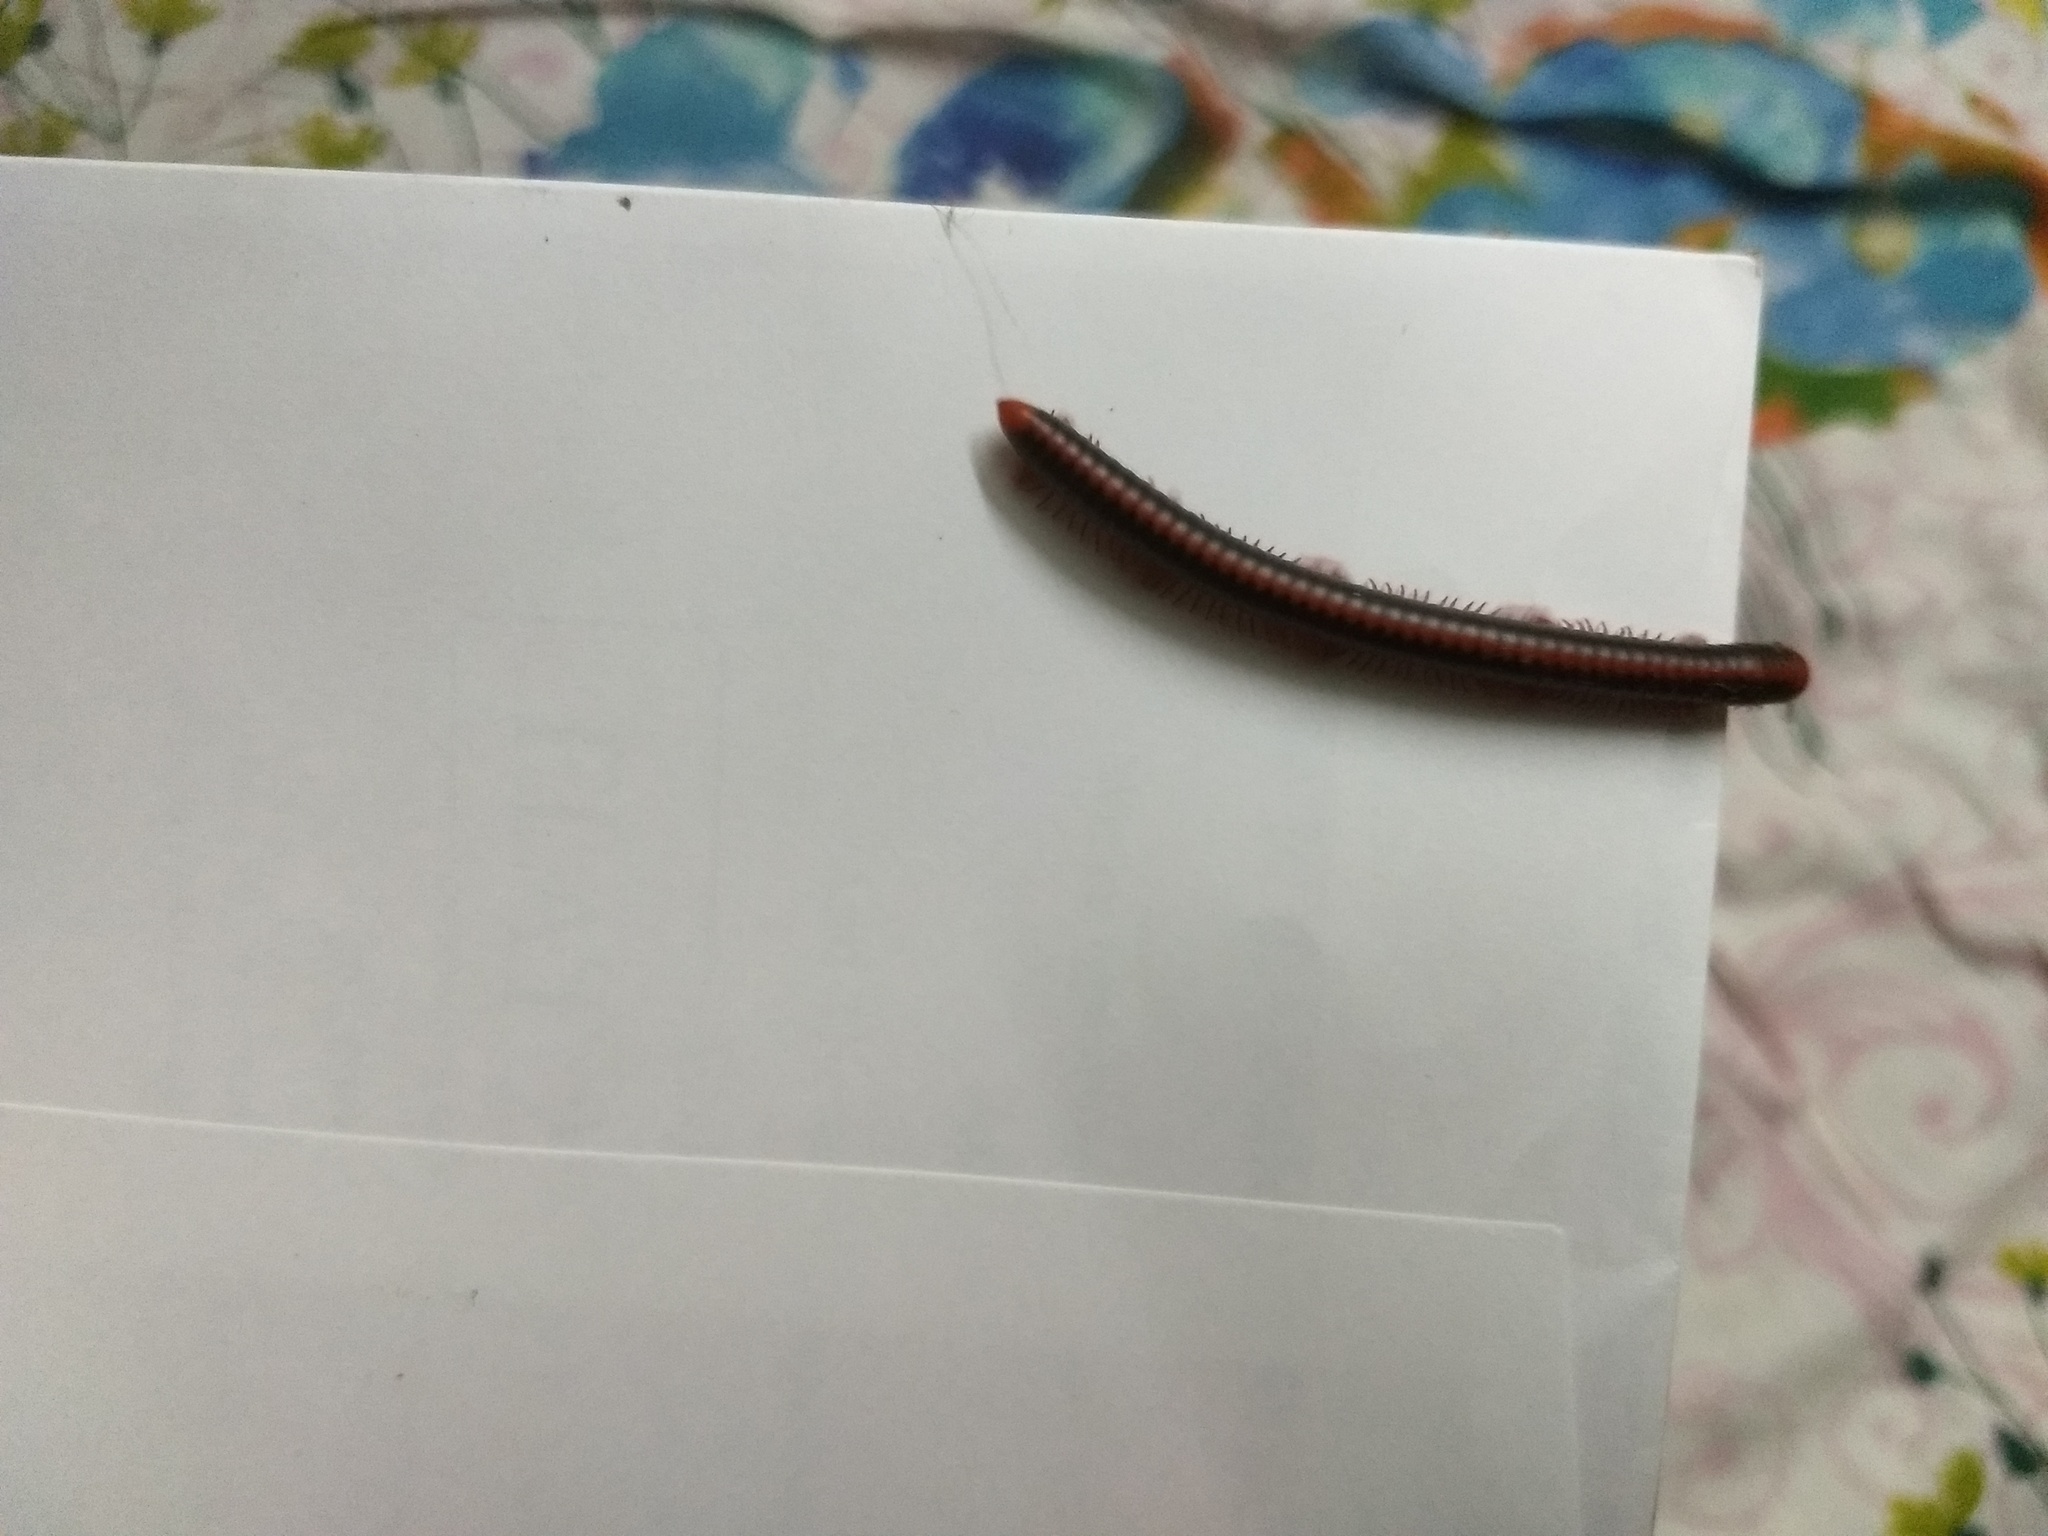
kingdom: Animalia
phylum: Arthropoda
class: Diplopoda
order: Spirobolida
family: Pachybolidae
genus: Xenobolus
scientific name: Xenobolus carnifex
